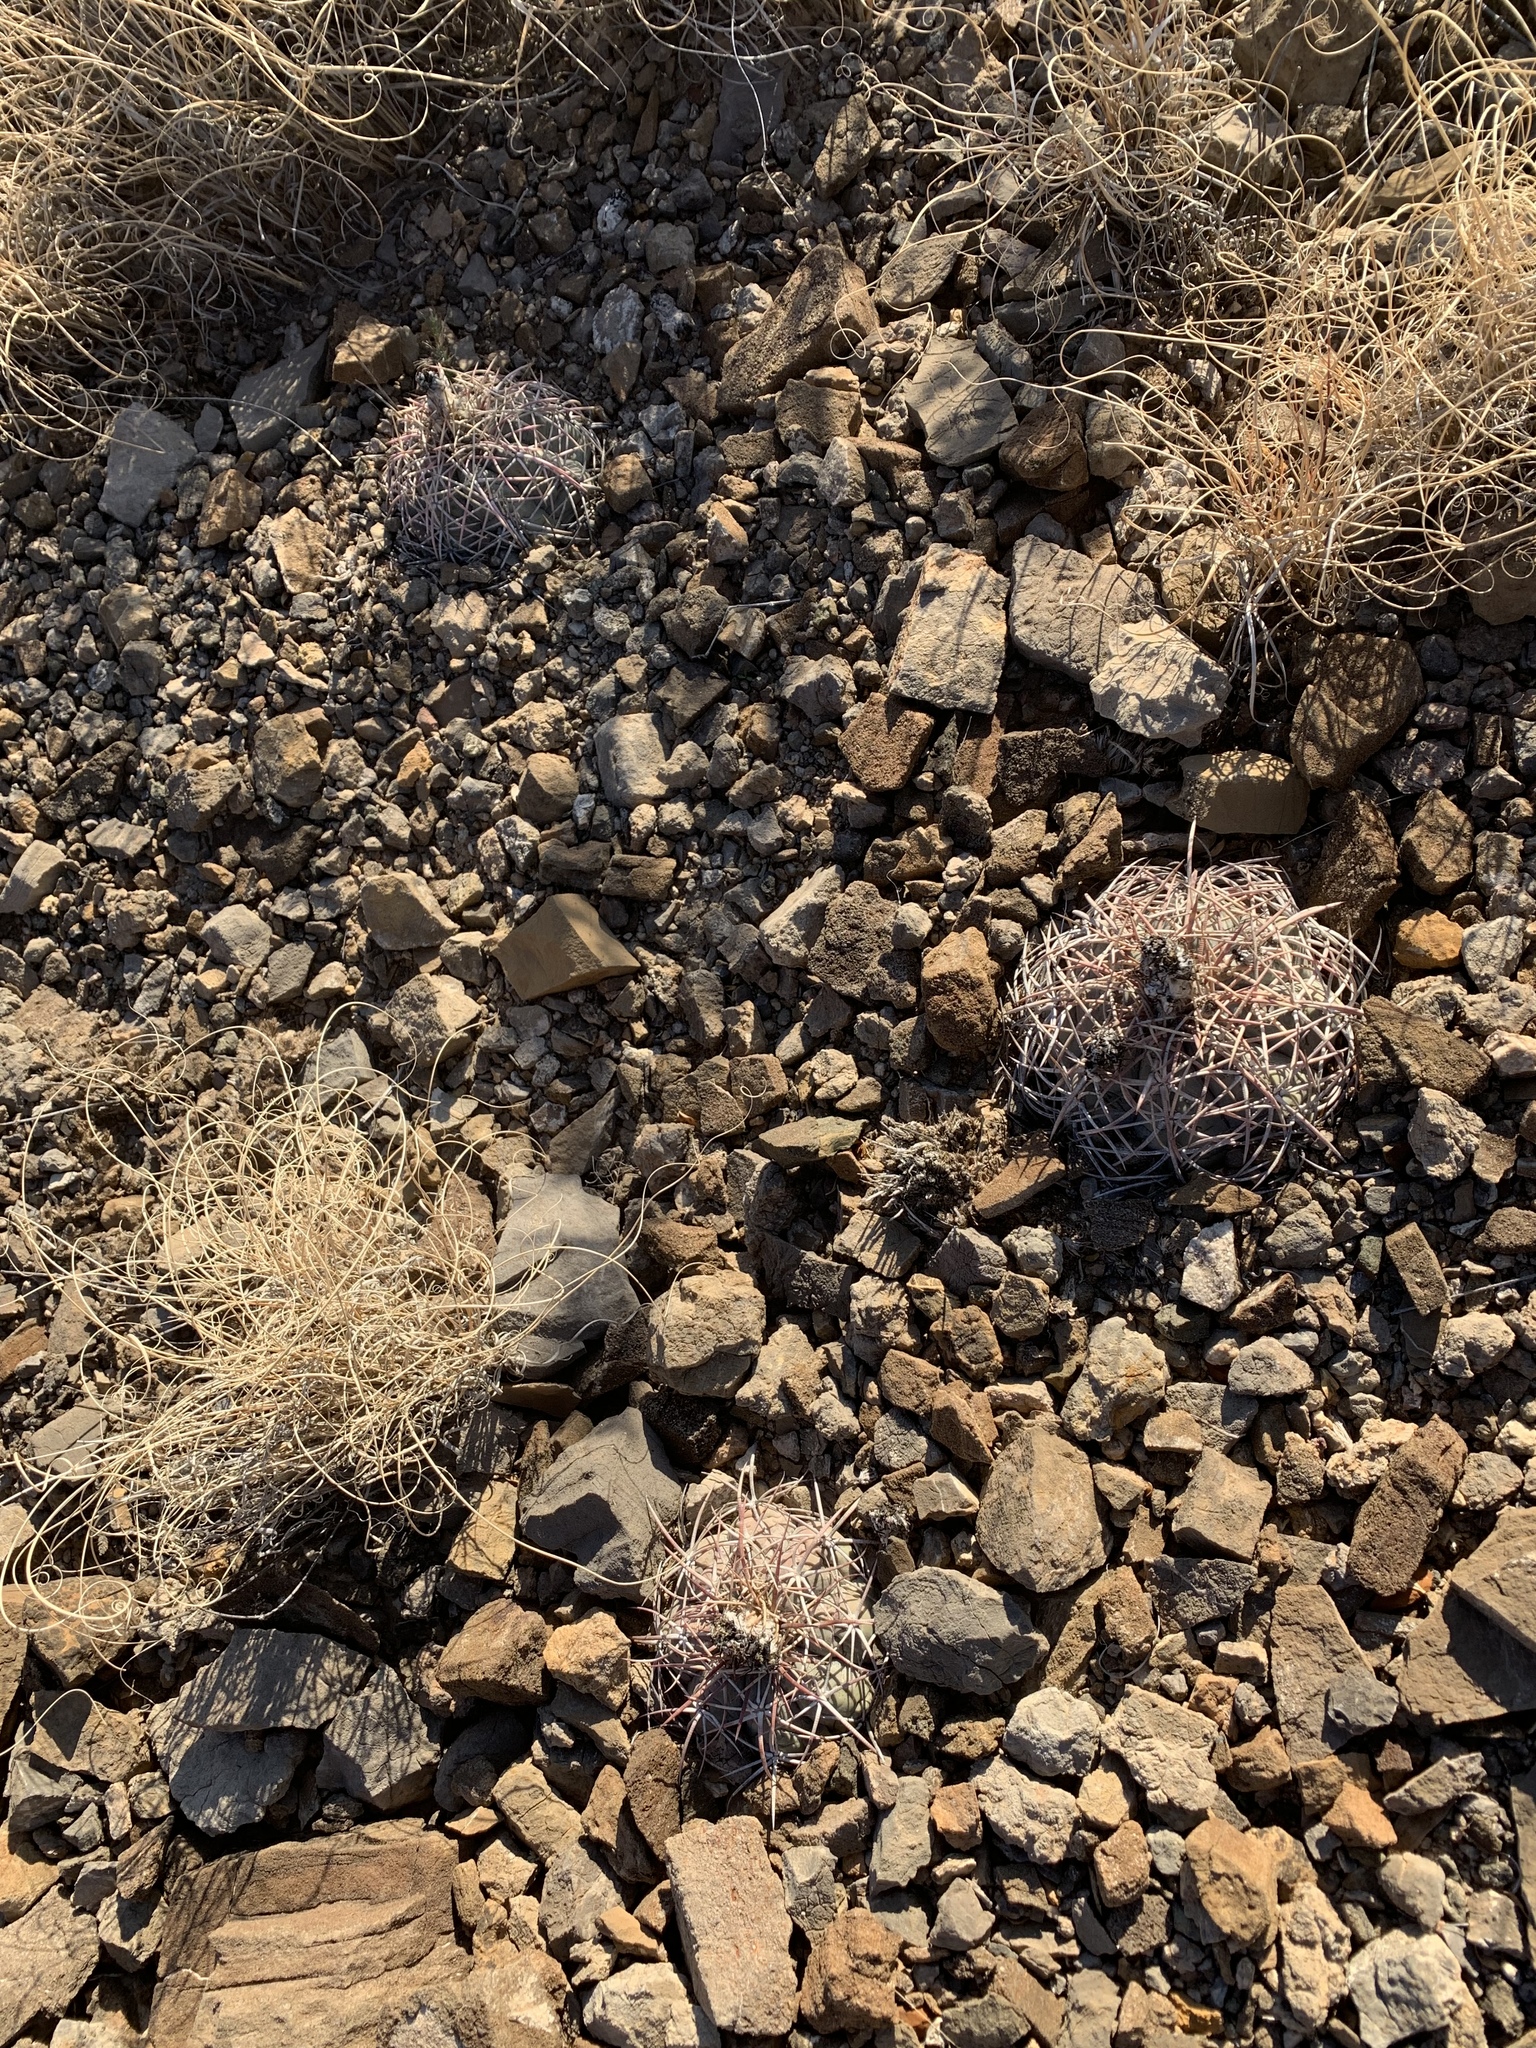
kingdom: Plantae
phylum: Tracheophyta
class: Magnoliopsida
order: Caryophyllales
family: Cactaceae
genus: Echinocactus
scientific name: Echinocactus horizonthalonius
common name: Devilshead
